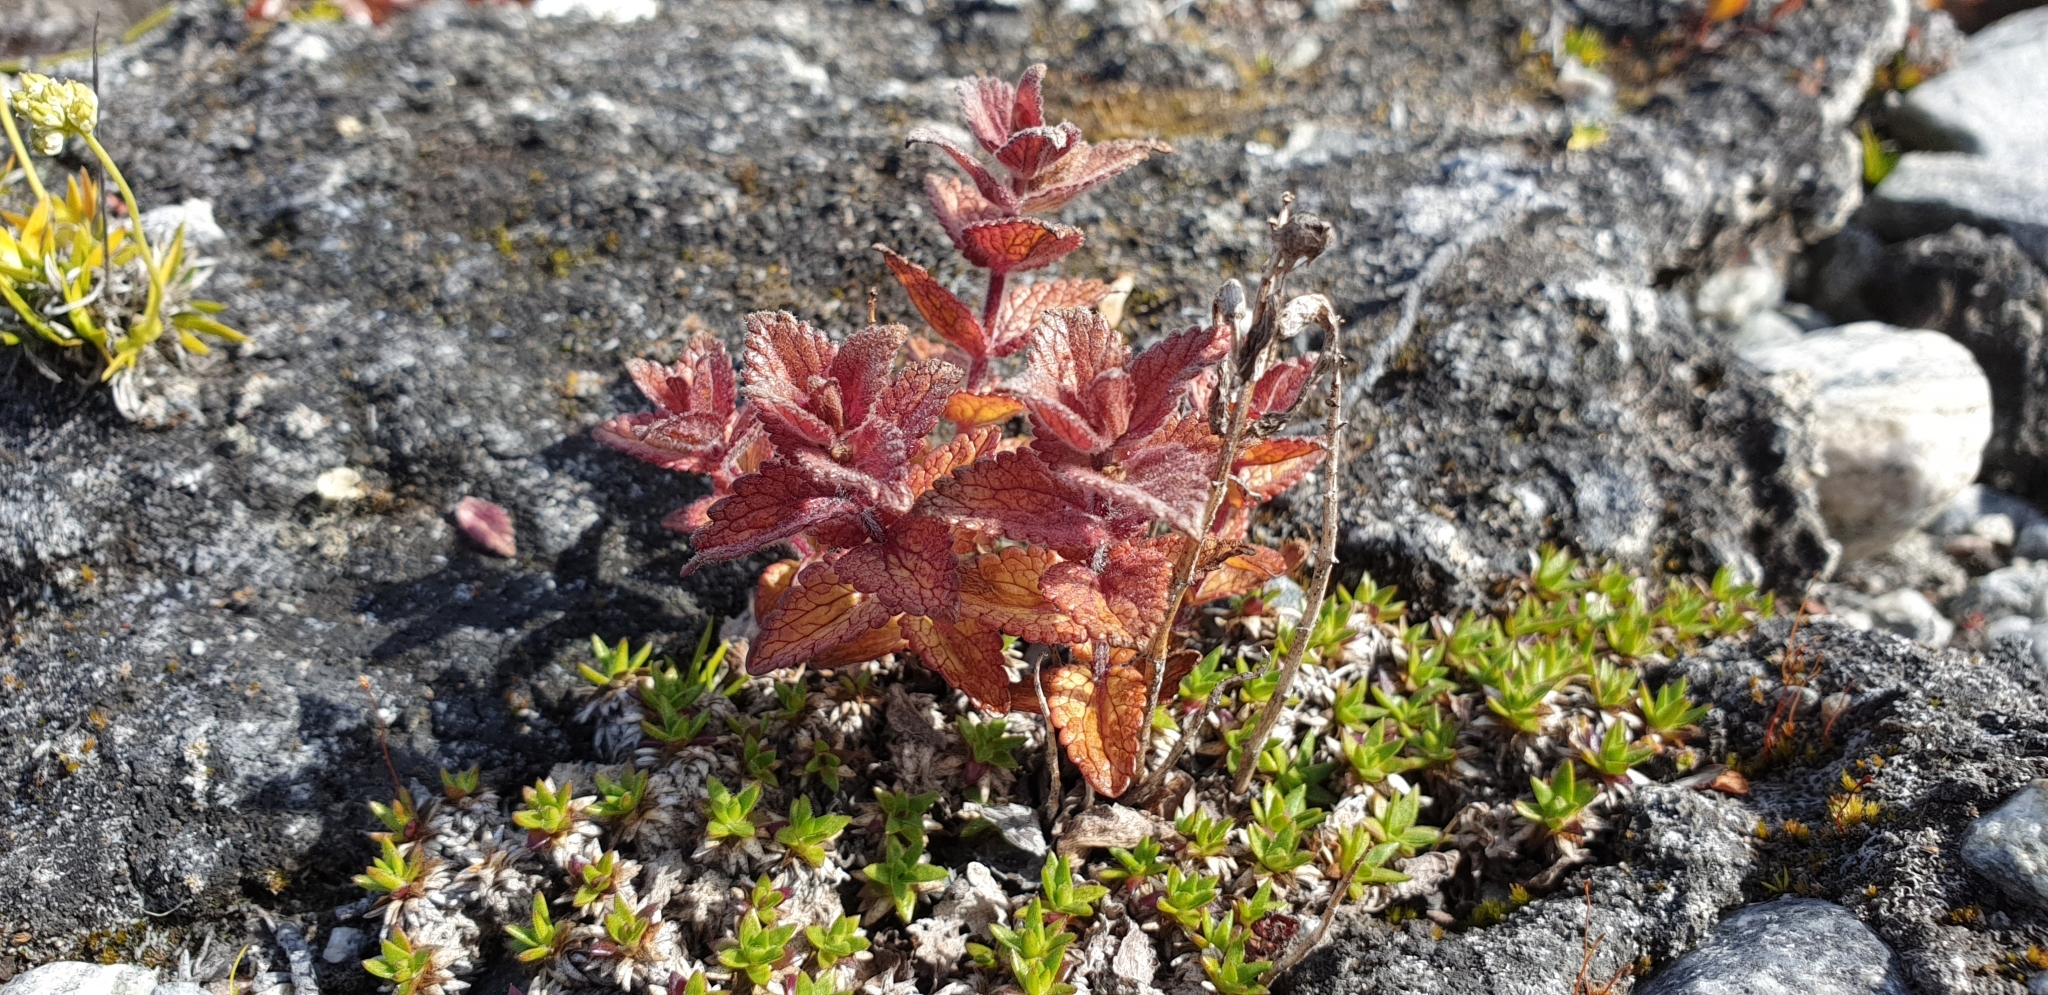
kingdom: Plantae
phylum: Tracheophyta
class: Magnoliopsida
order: Lamiales
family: Orobanchaceae
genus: Bartsia
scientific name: Bartsia alpina
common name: Alpine bartsia
